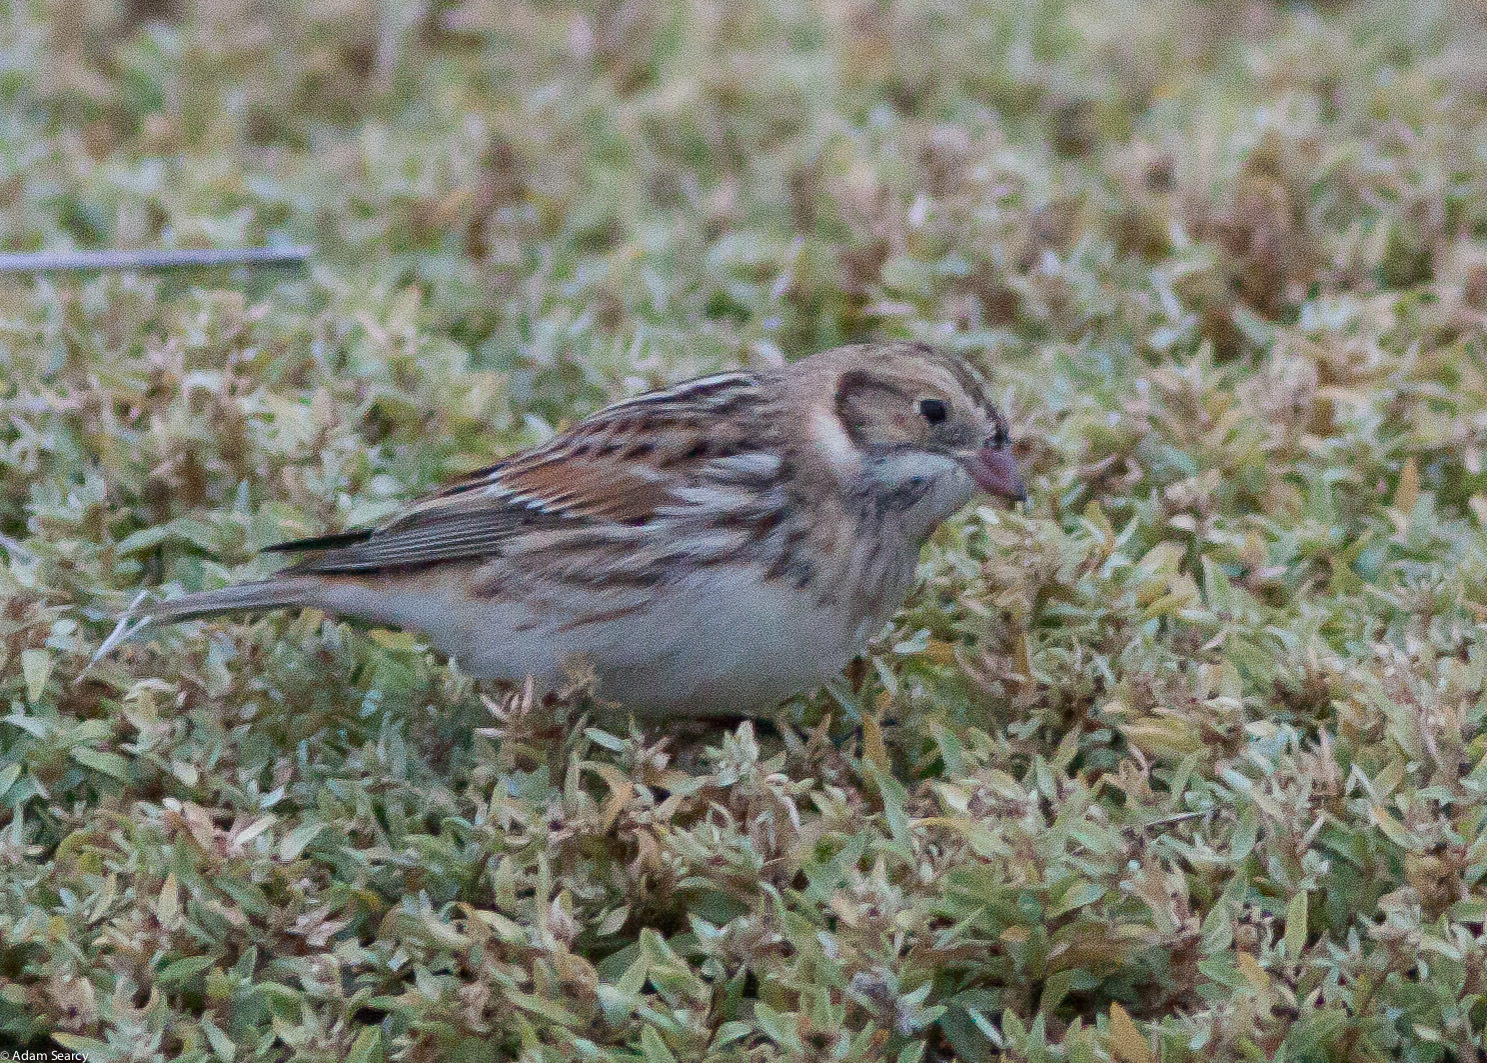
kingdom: Animalia
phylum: Chordata
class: Aves
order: Passeriformes
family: Calcariidae
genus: Calcarius
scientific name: Calcarius lapponicus
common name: Lapland longspur
